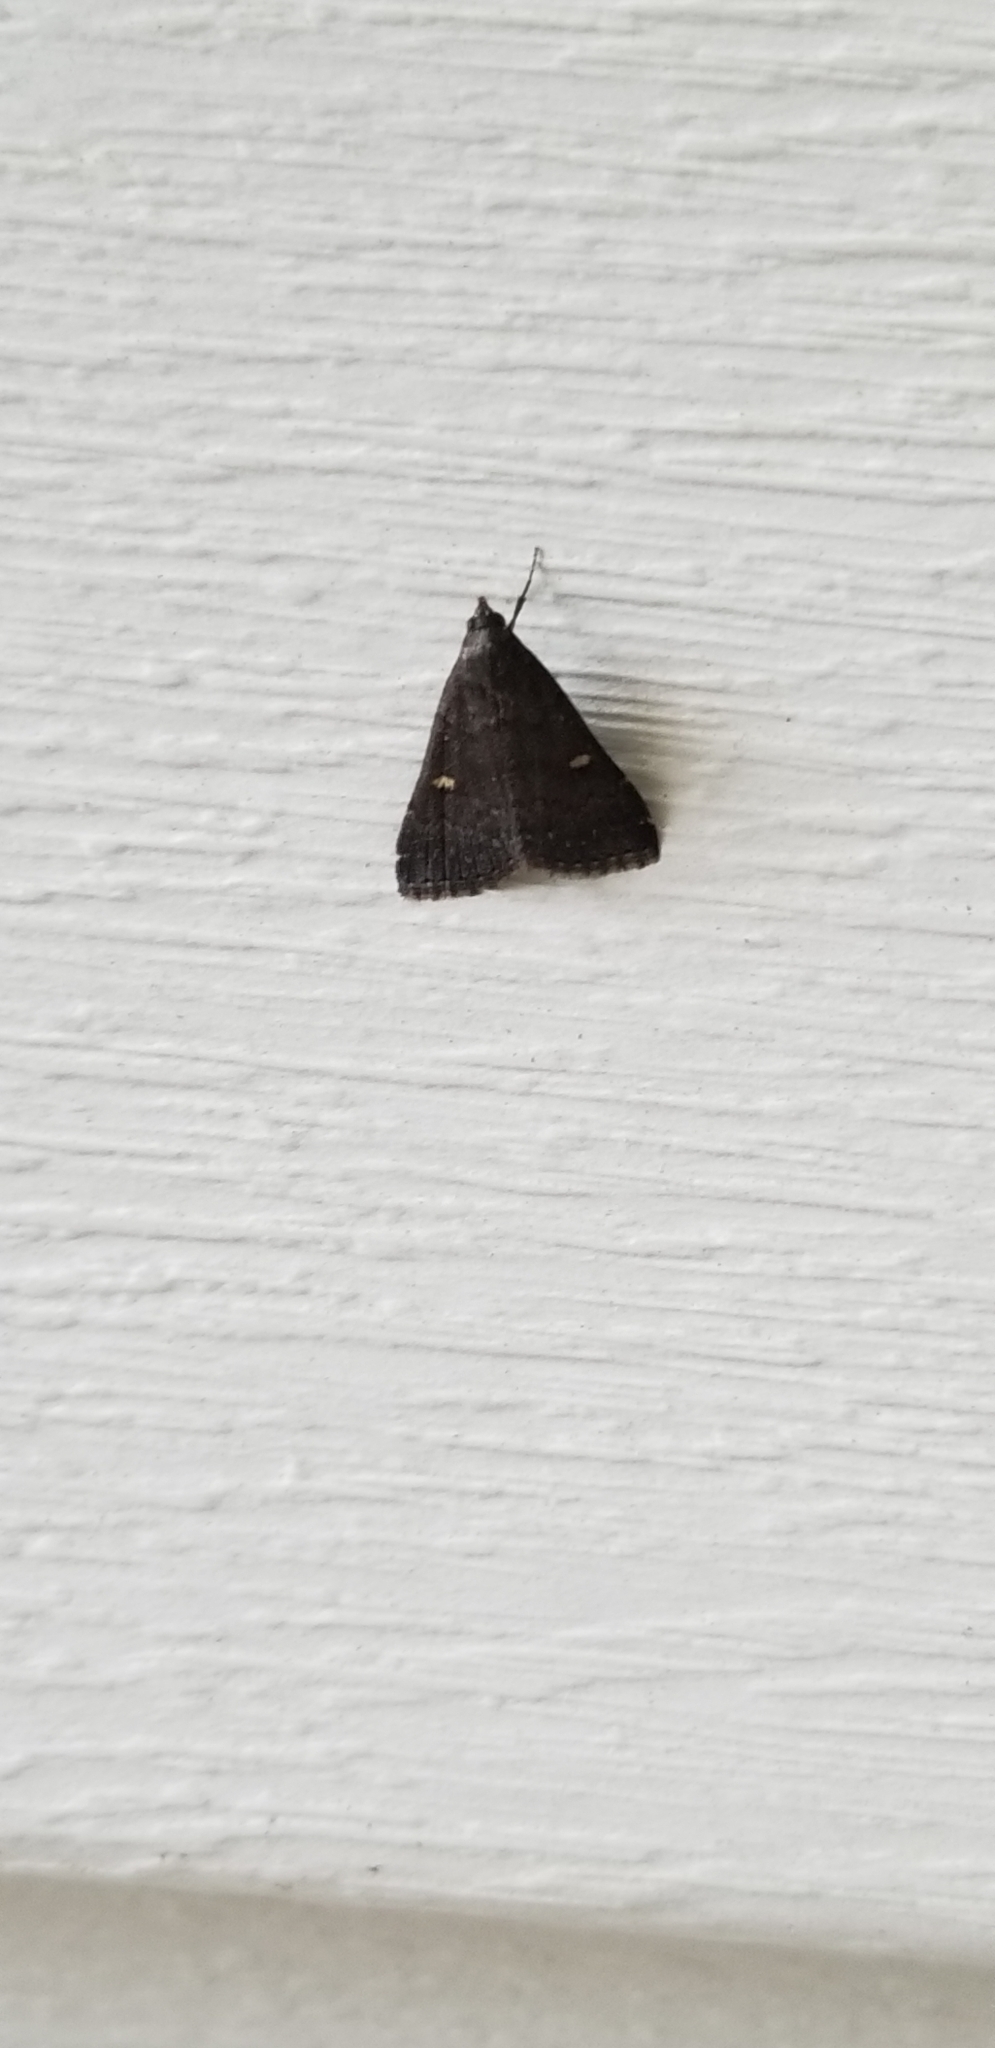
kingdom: Animalia
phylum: Arthropoda
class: Insecta
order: Lepidoptera
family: Erebidae
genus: Tetanolita
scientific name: Tetanolita mynesalis
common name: Smoky tetanolita moth
